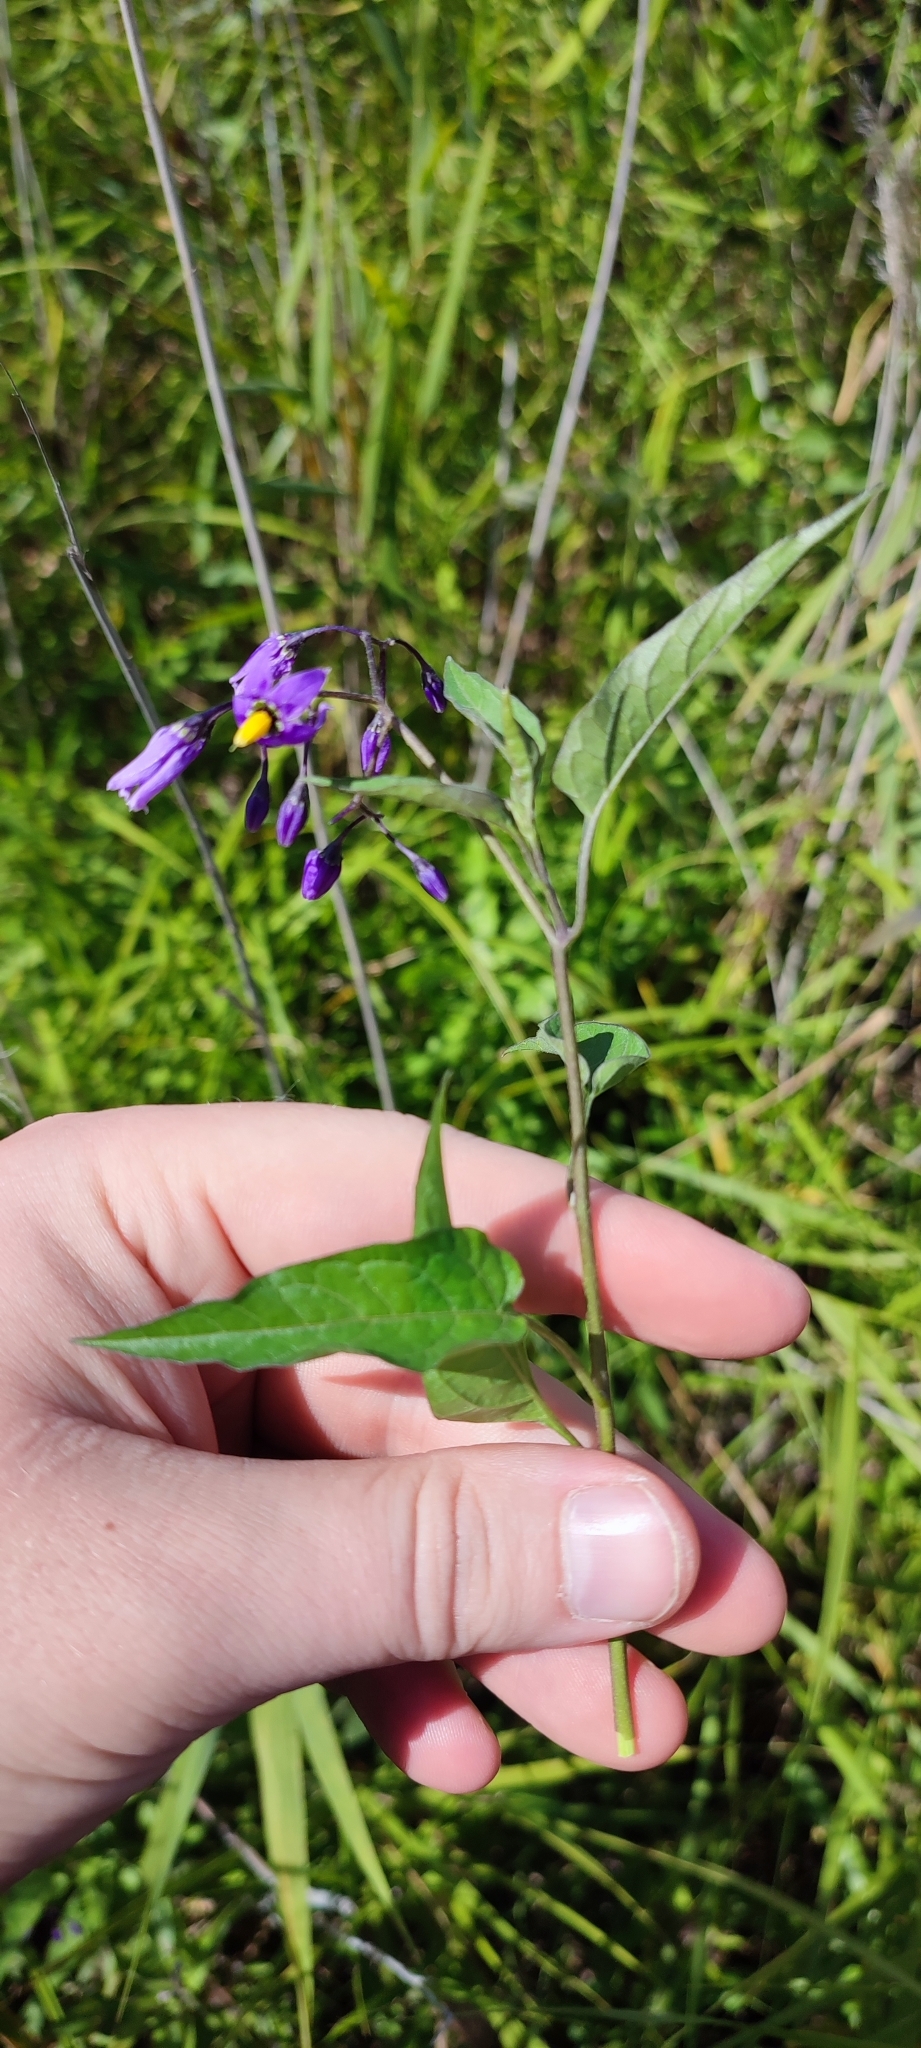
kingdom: Plantae
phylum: Tracheophyta
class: Magnoliopsida
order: Solanales
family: Solanaceae
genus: Solanum
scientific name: Solanum dulcamara
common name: Climbing nightshade
